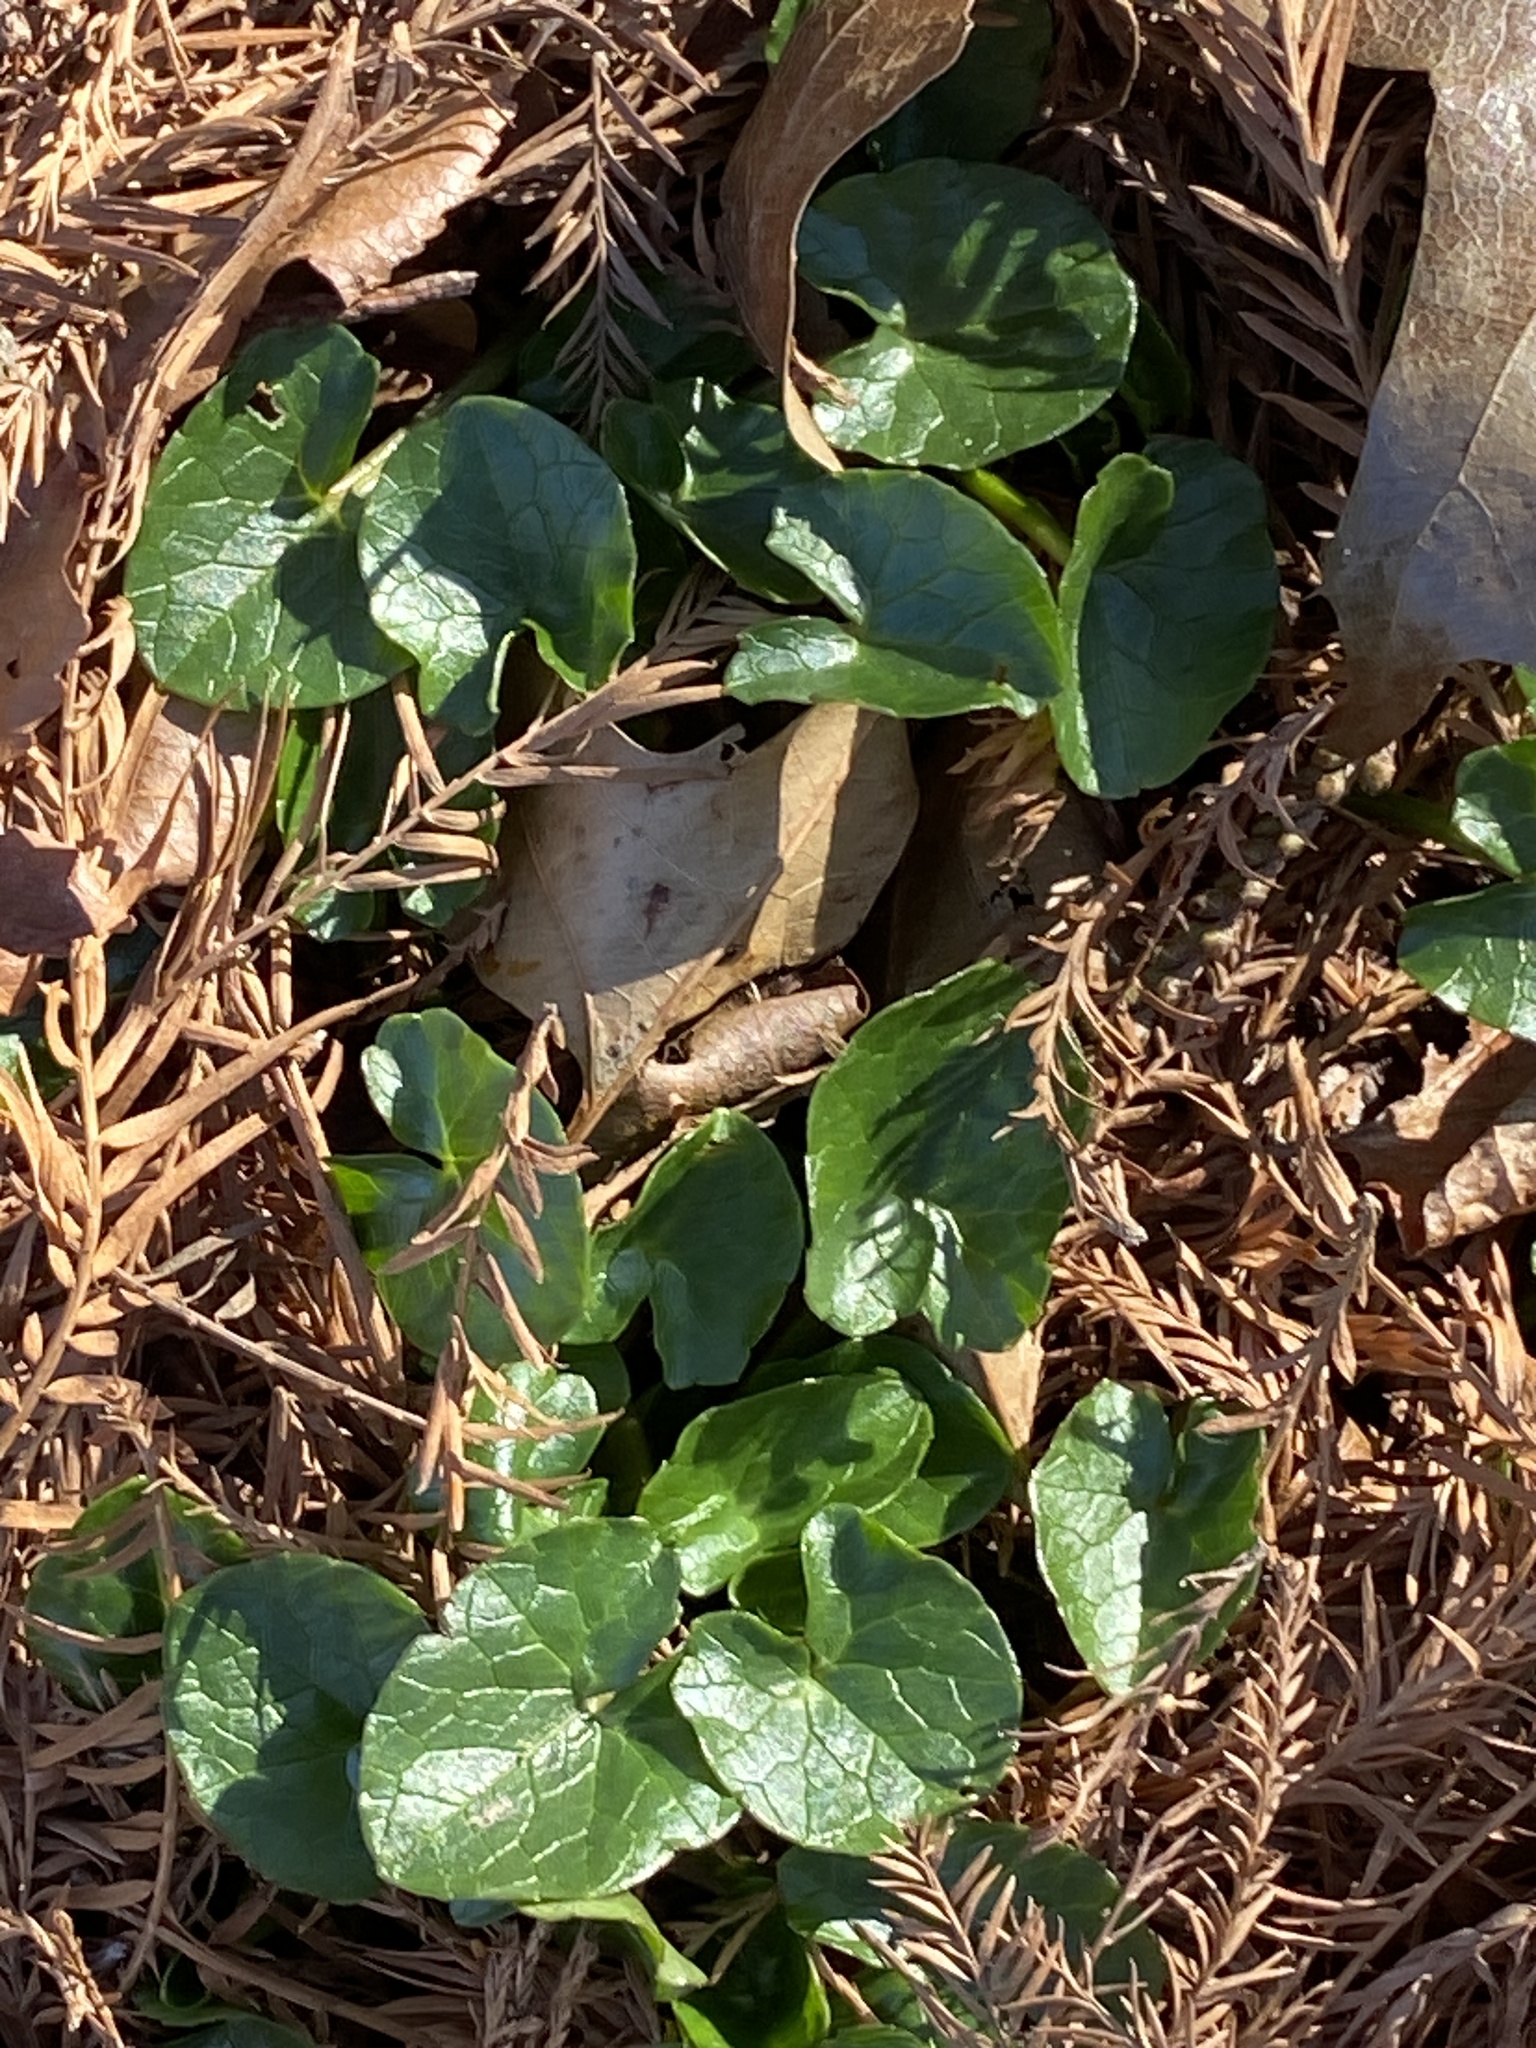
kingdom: Plantae
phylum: Tracheophyta
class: Magnoliopsida
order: Ranunculales
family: Ranunculaceae
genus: Ficaria
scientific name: Ficaria verna
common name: Lesser celandine
